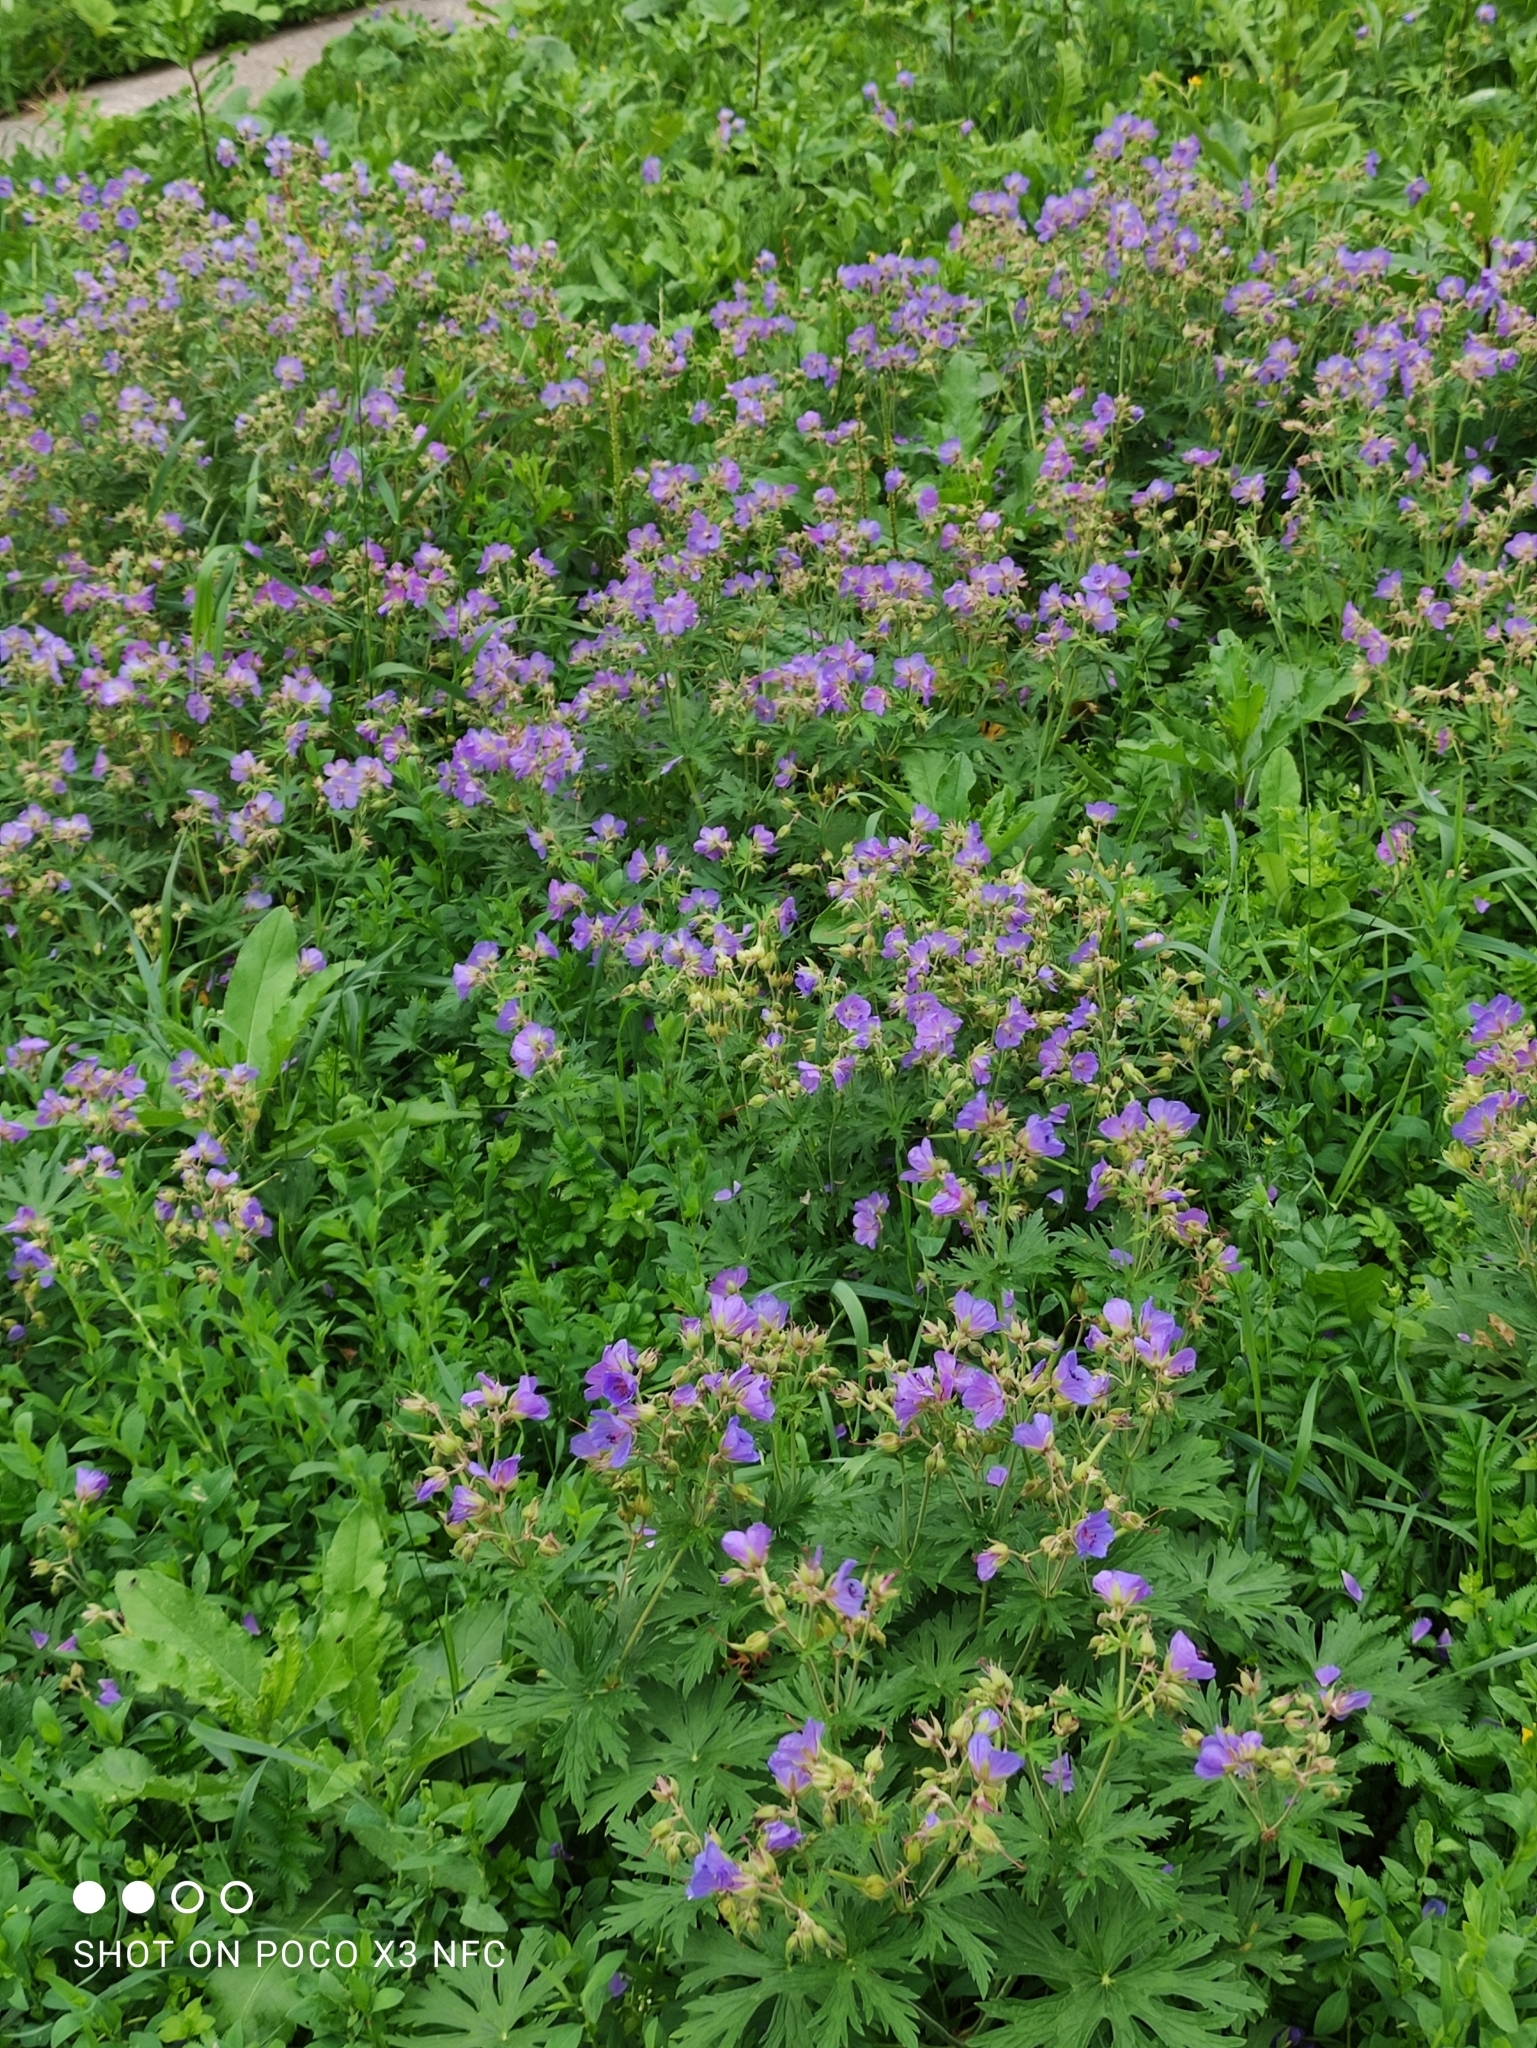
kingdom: Plantae
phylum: Tracheophyta
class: Magnoliopsida
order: Geraniales
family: Geraniaceae
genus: Geranium
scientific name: Geranium pratense
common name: Meadow crane's-bill
